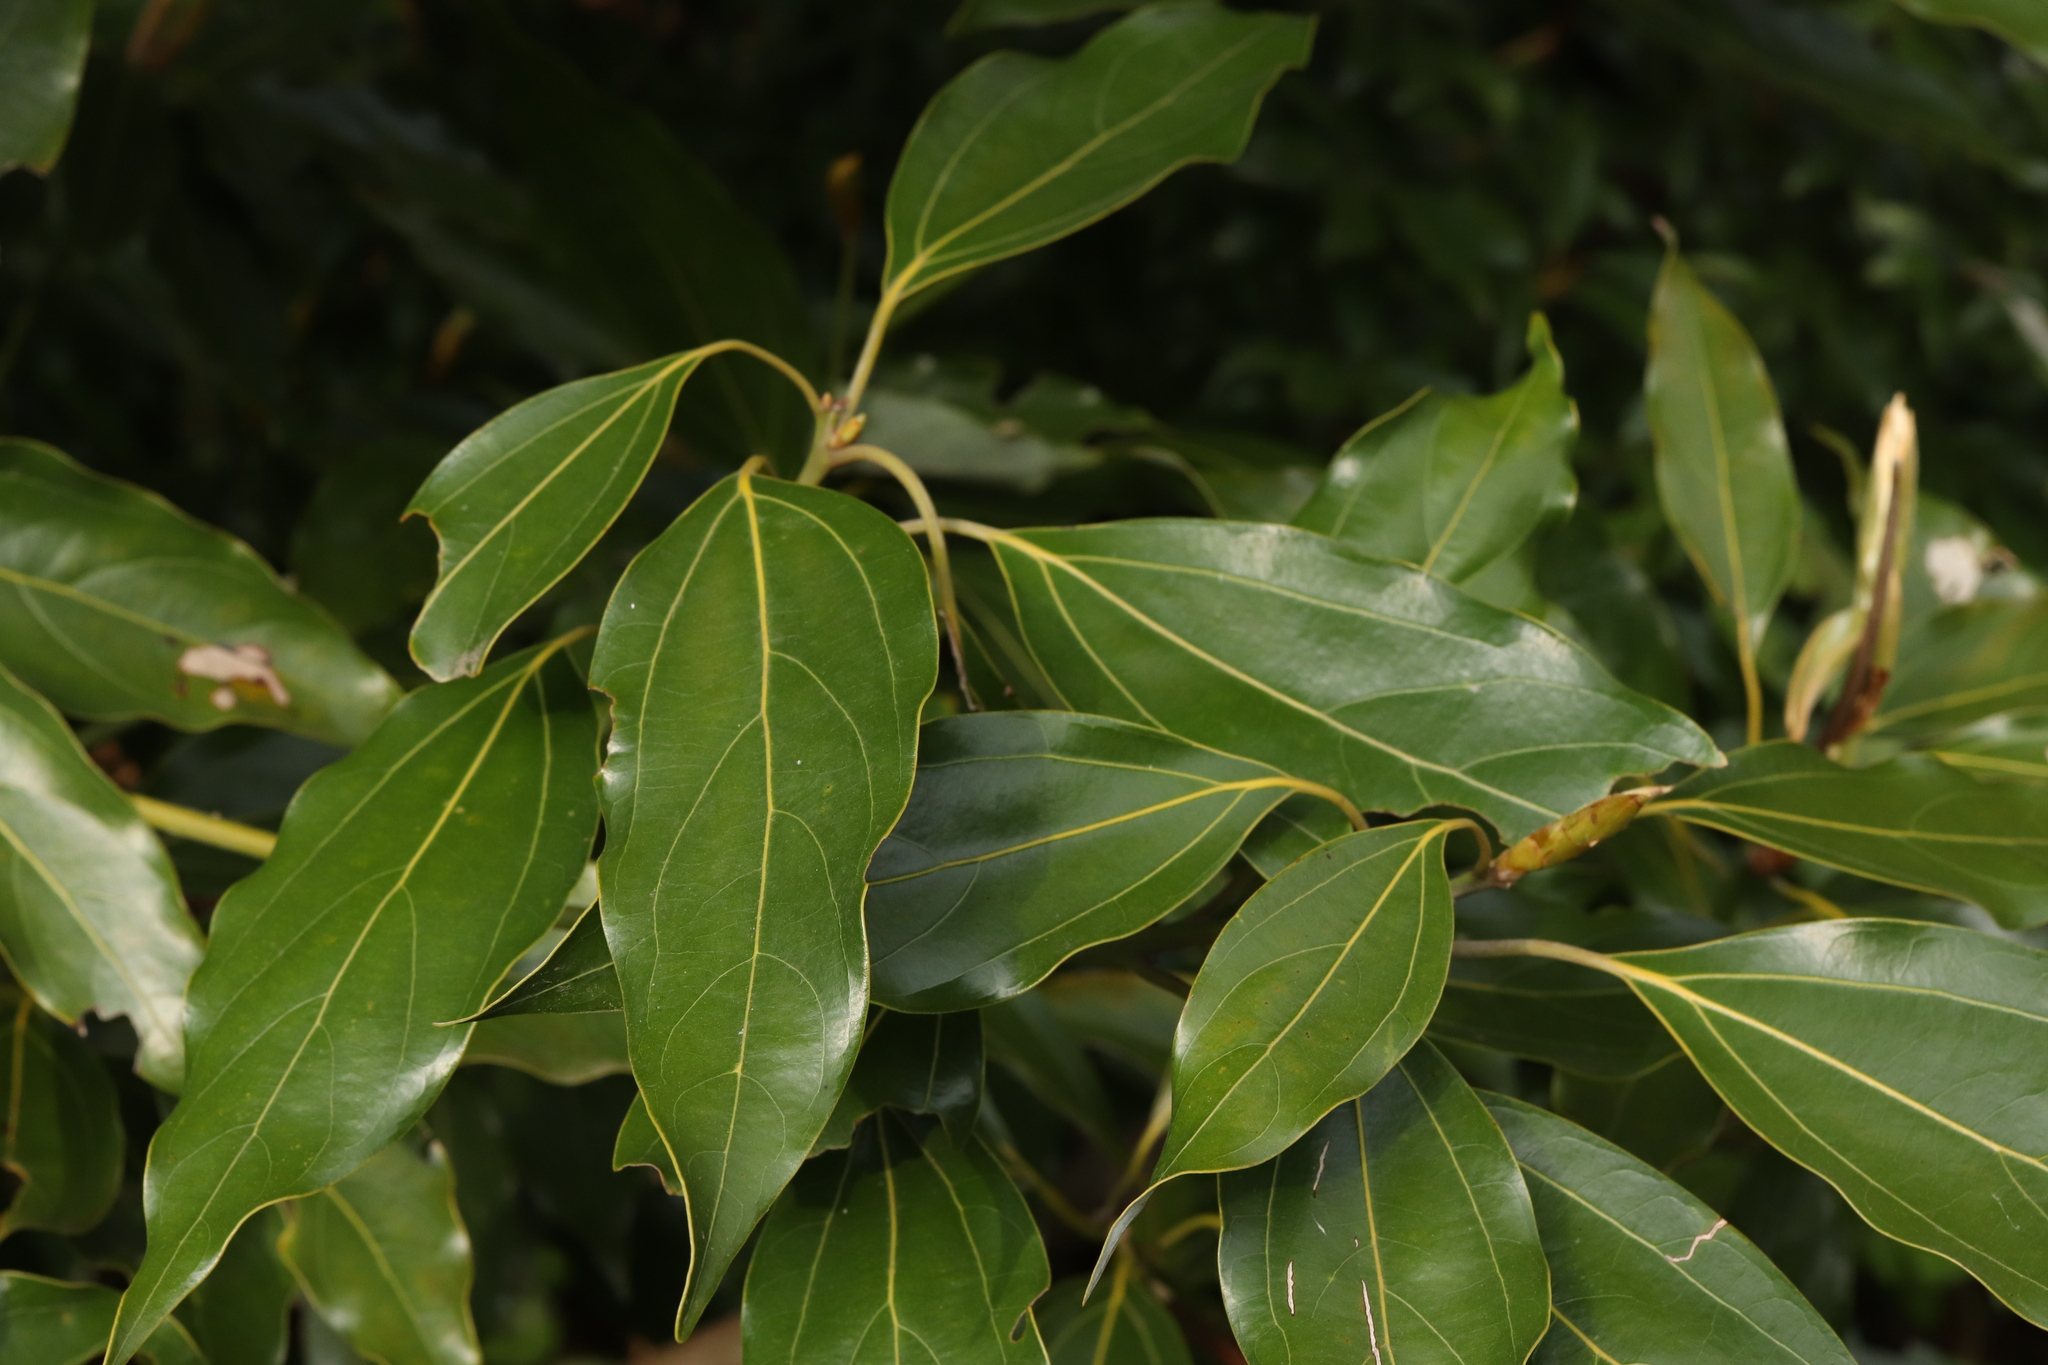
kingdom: Plantae
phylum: Tracheophyta
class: Magnoliopsida
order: Laurales
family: Lauraceae
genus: Neolitsea
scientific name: Neolitsea sericea
